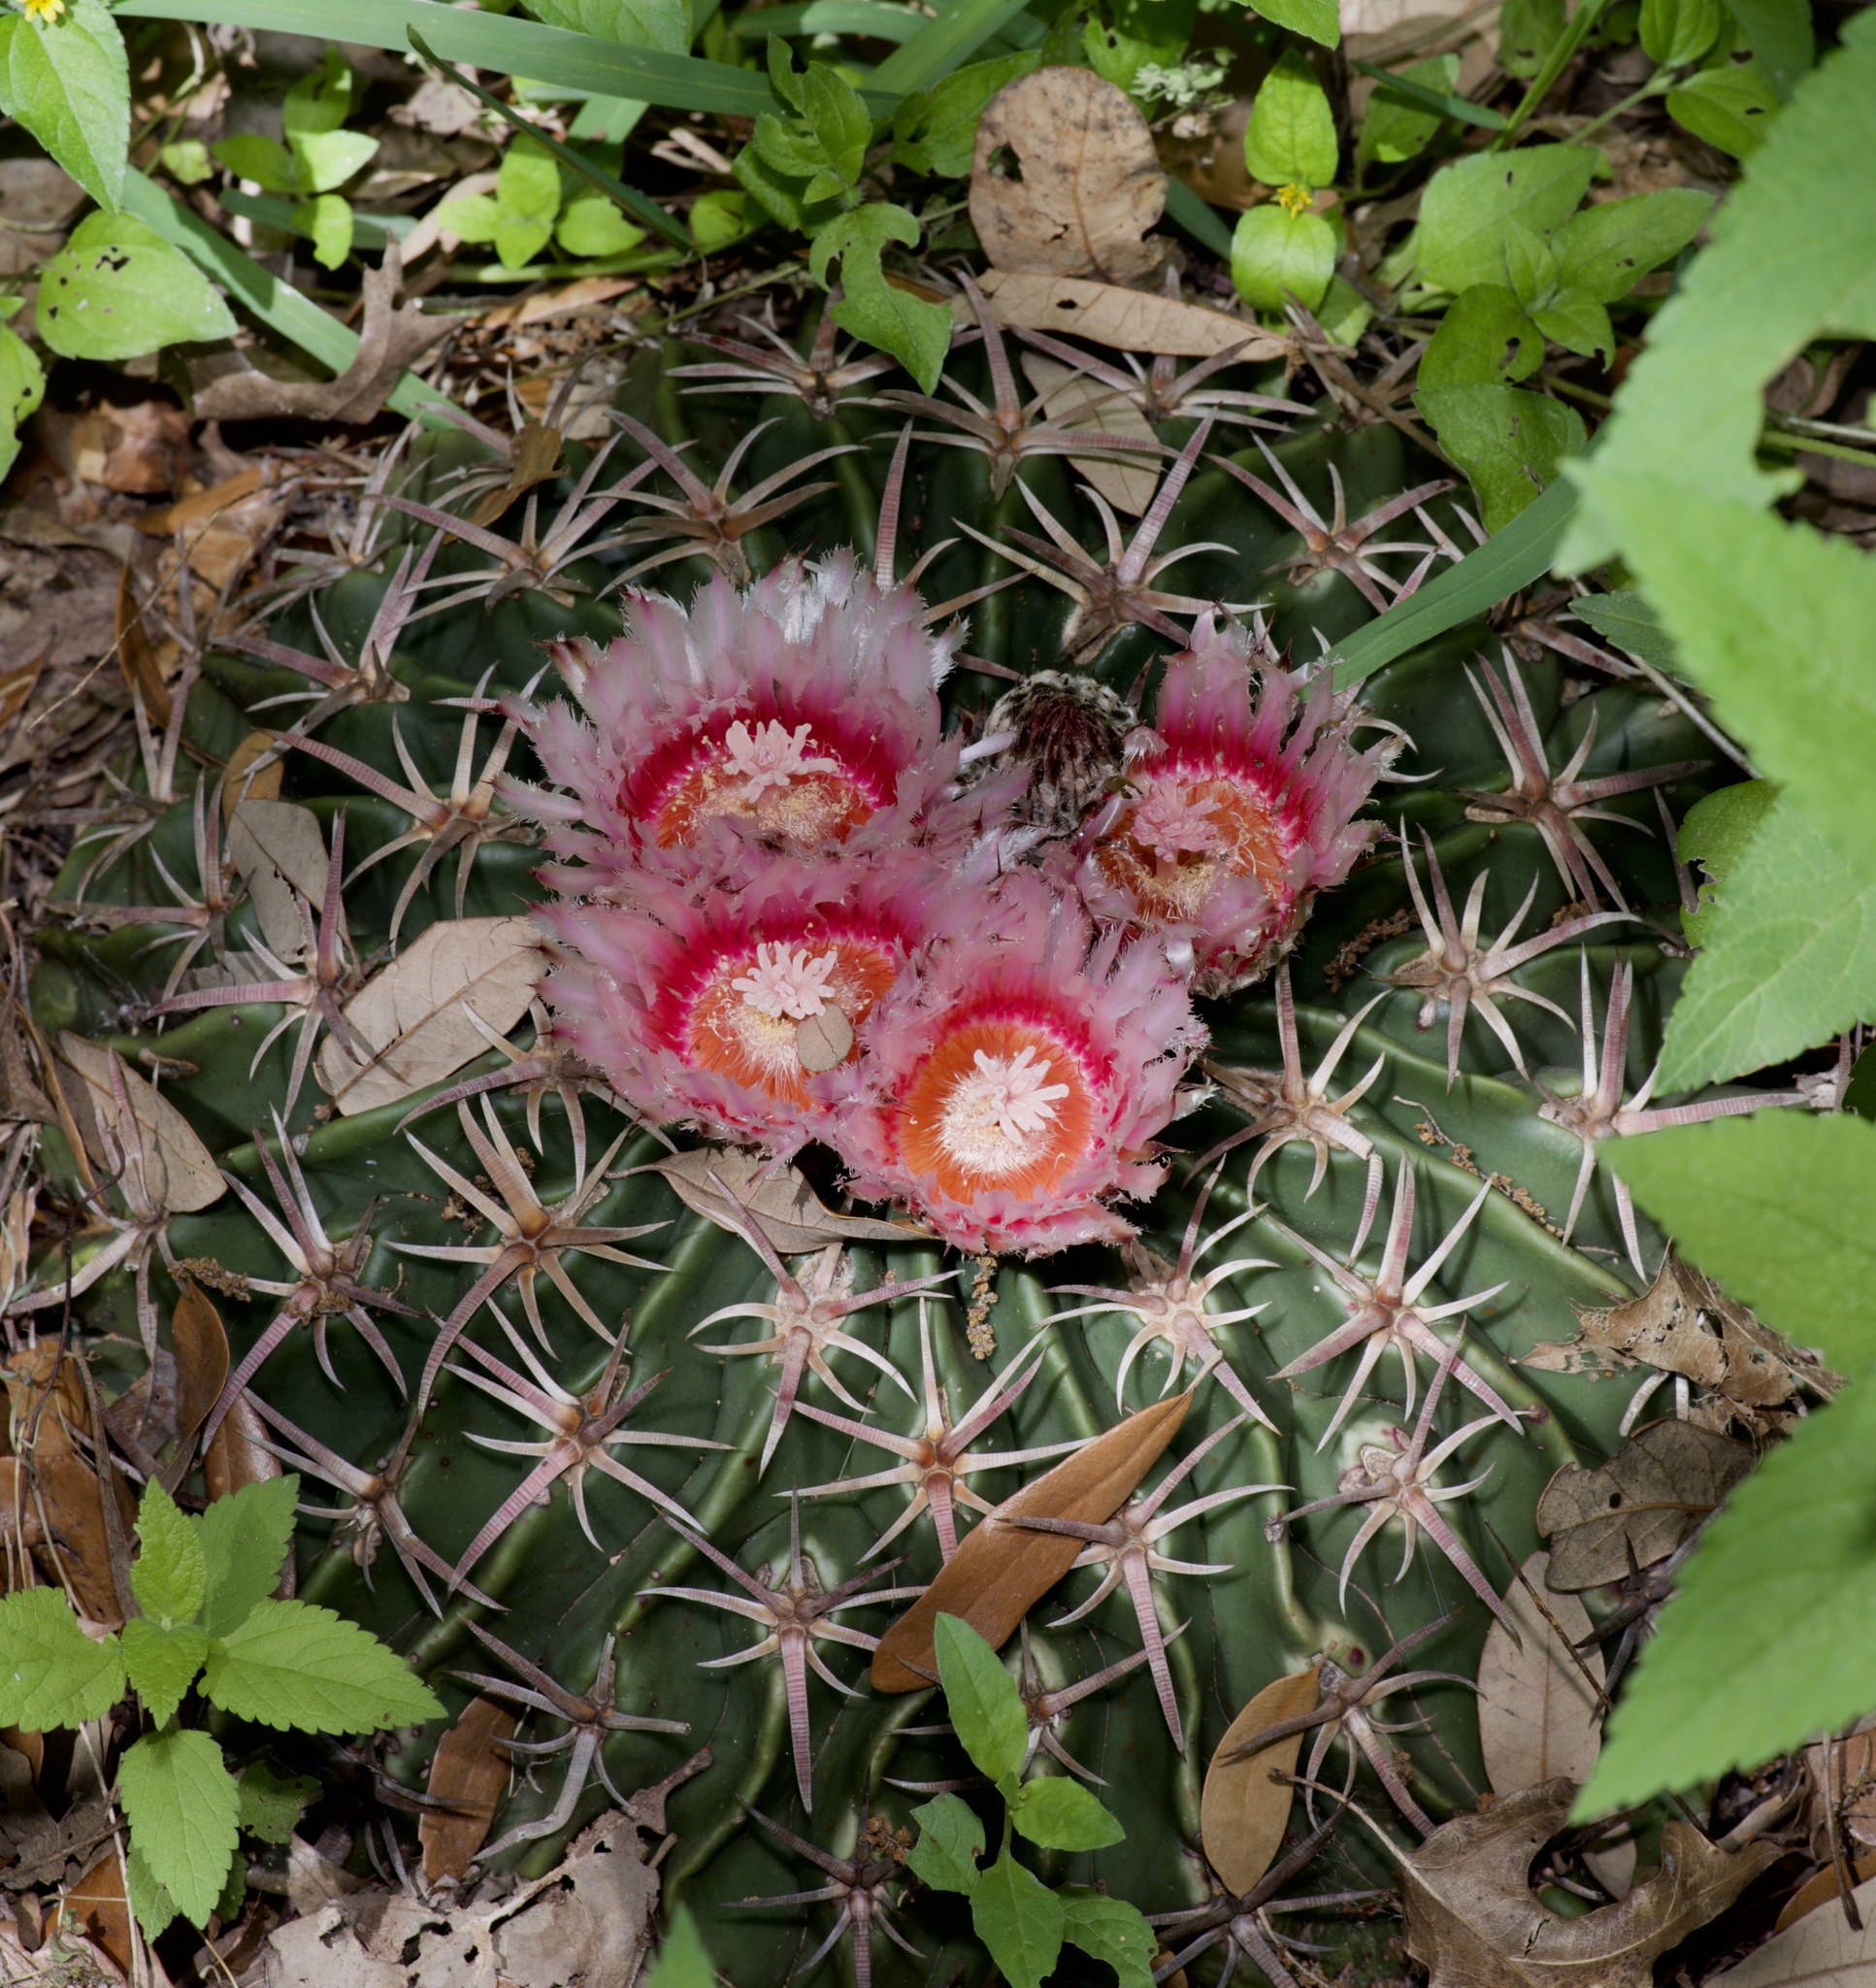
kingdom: Plantae
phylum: Tracheophyta
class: Magnoliopsida
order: Caryophyllales
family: Cactaceae
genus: Echinocactus
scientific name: Echinocactus texensis
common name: Devil's pincushion
